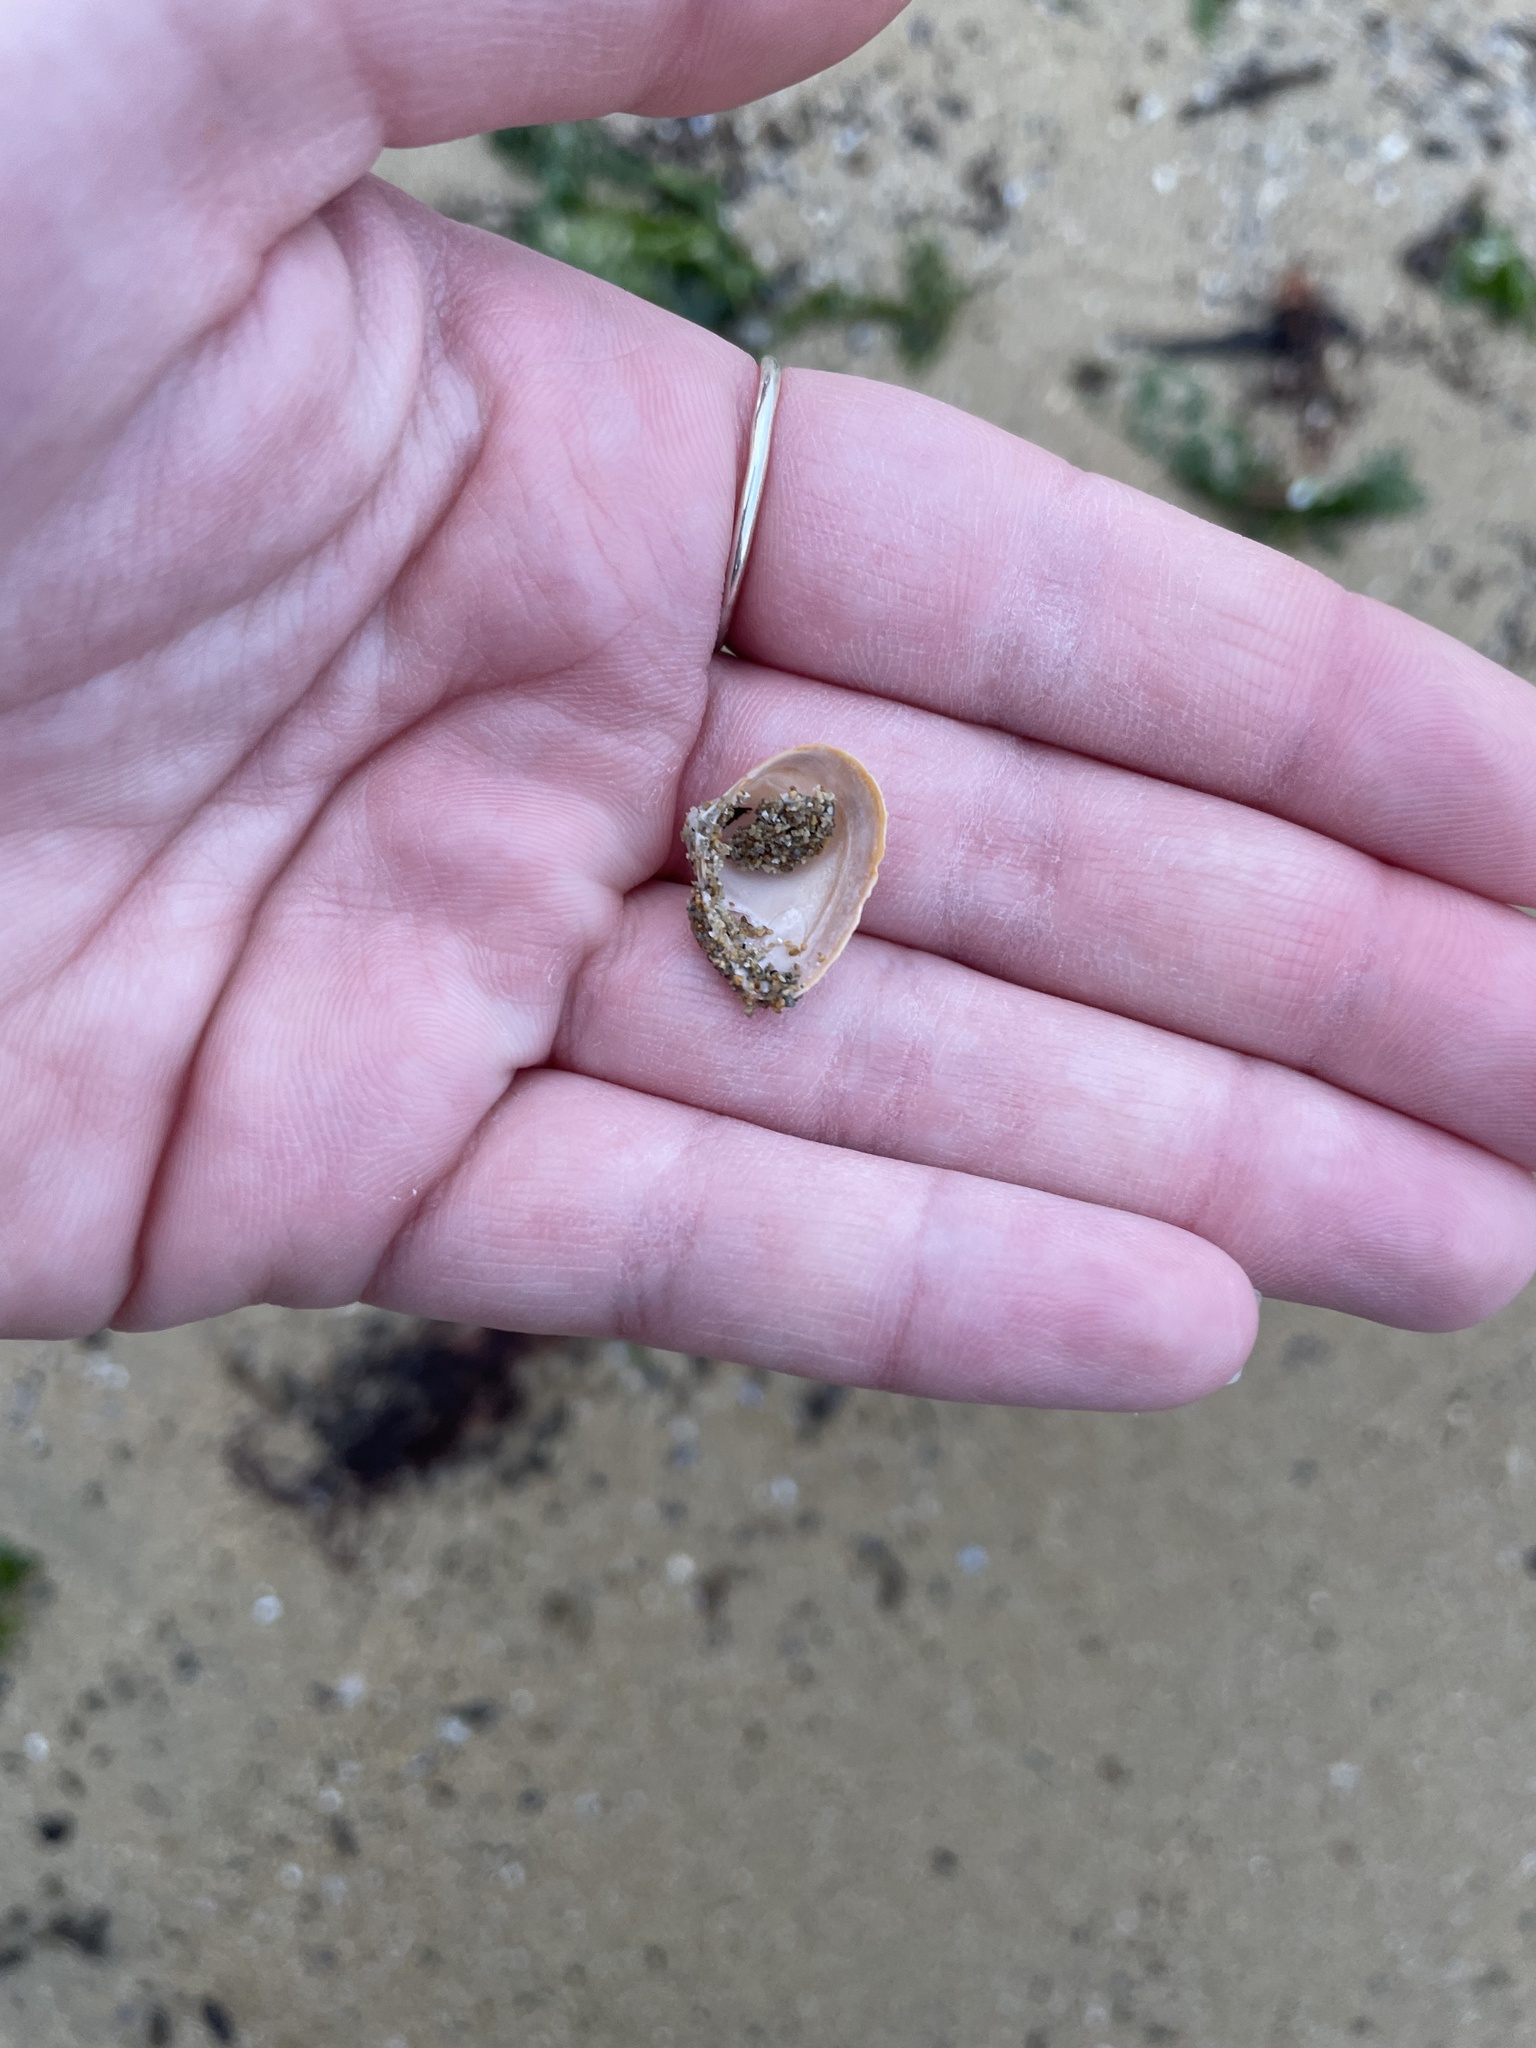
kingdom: Animalia
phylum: Mollusca
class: Bivalvia
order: Venerida
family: Mactridae
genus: Spisula
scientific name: Spisula subtruncata
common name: Cut trough shell
